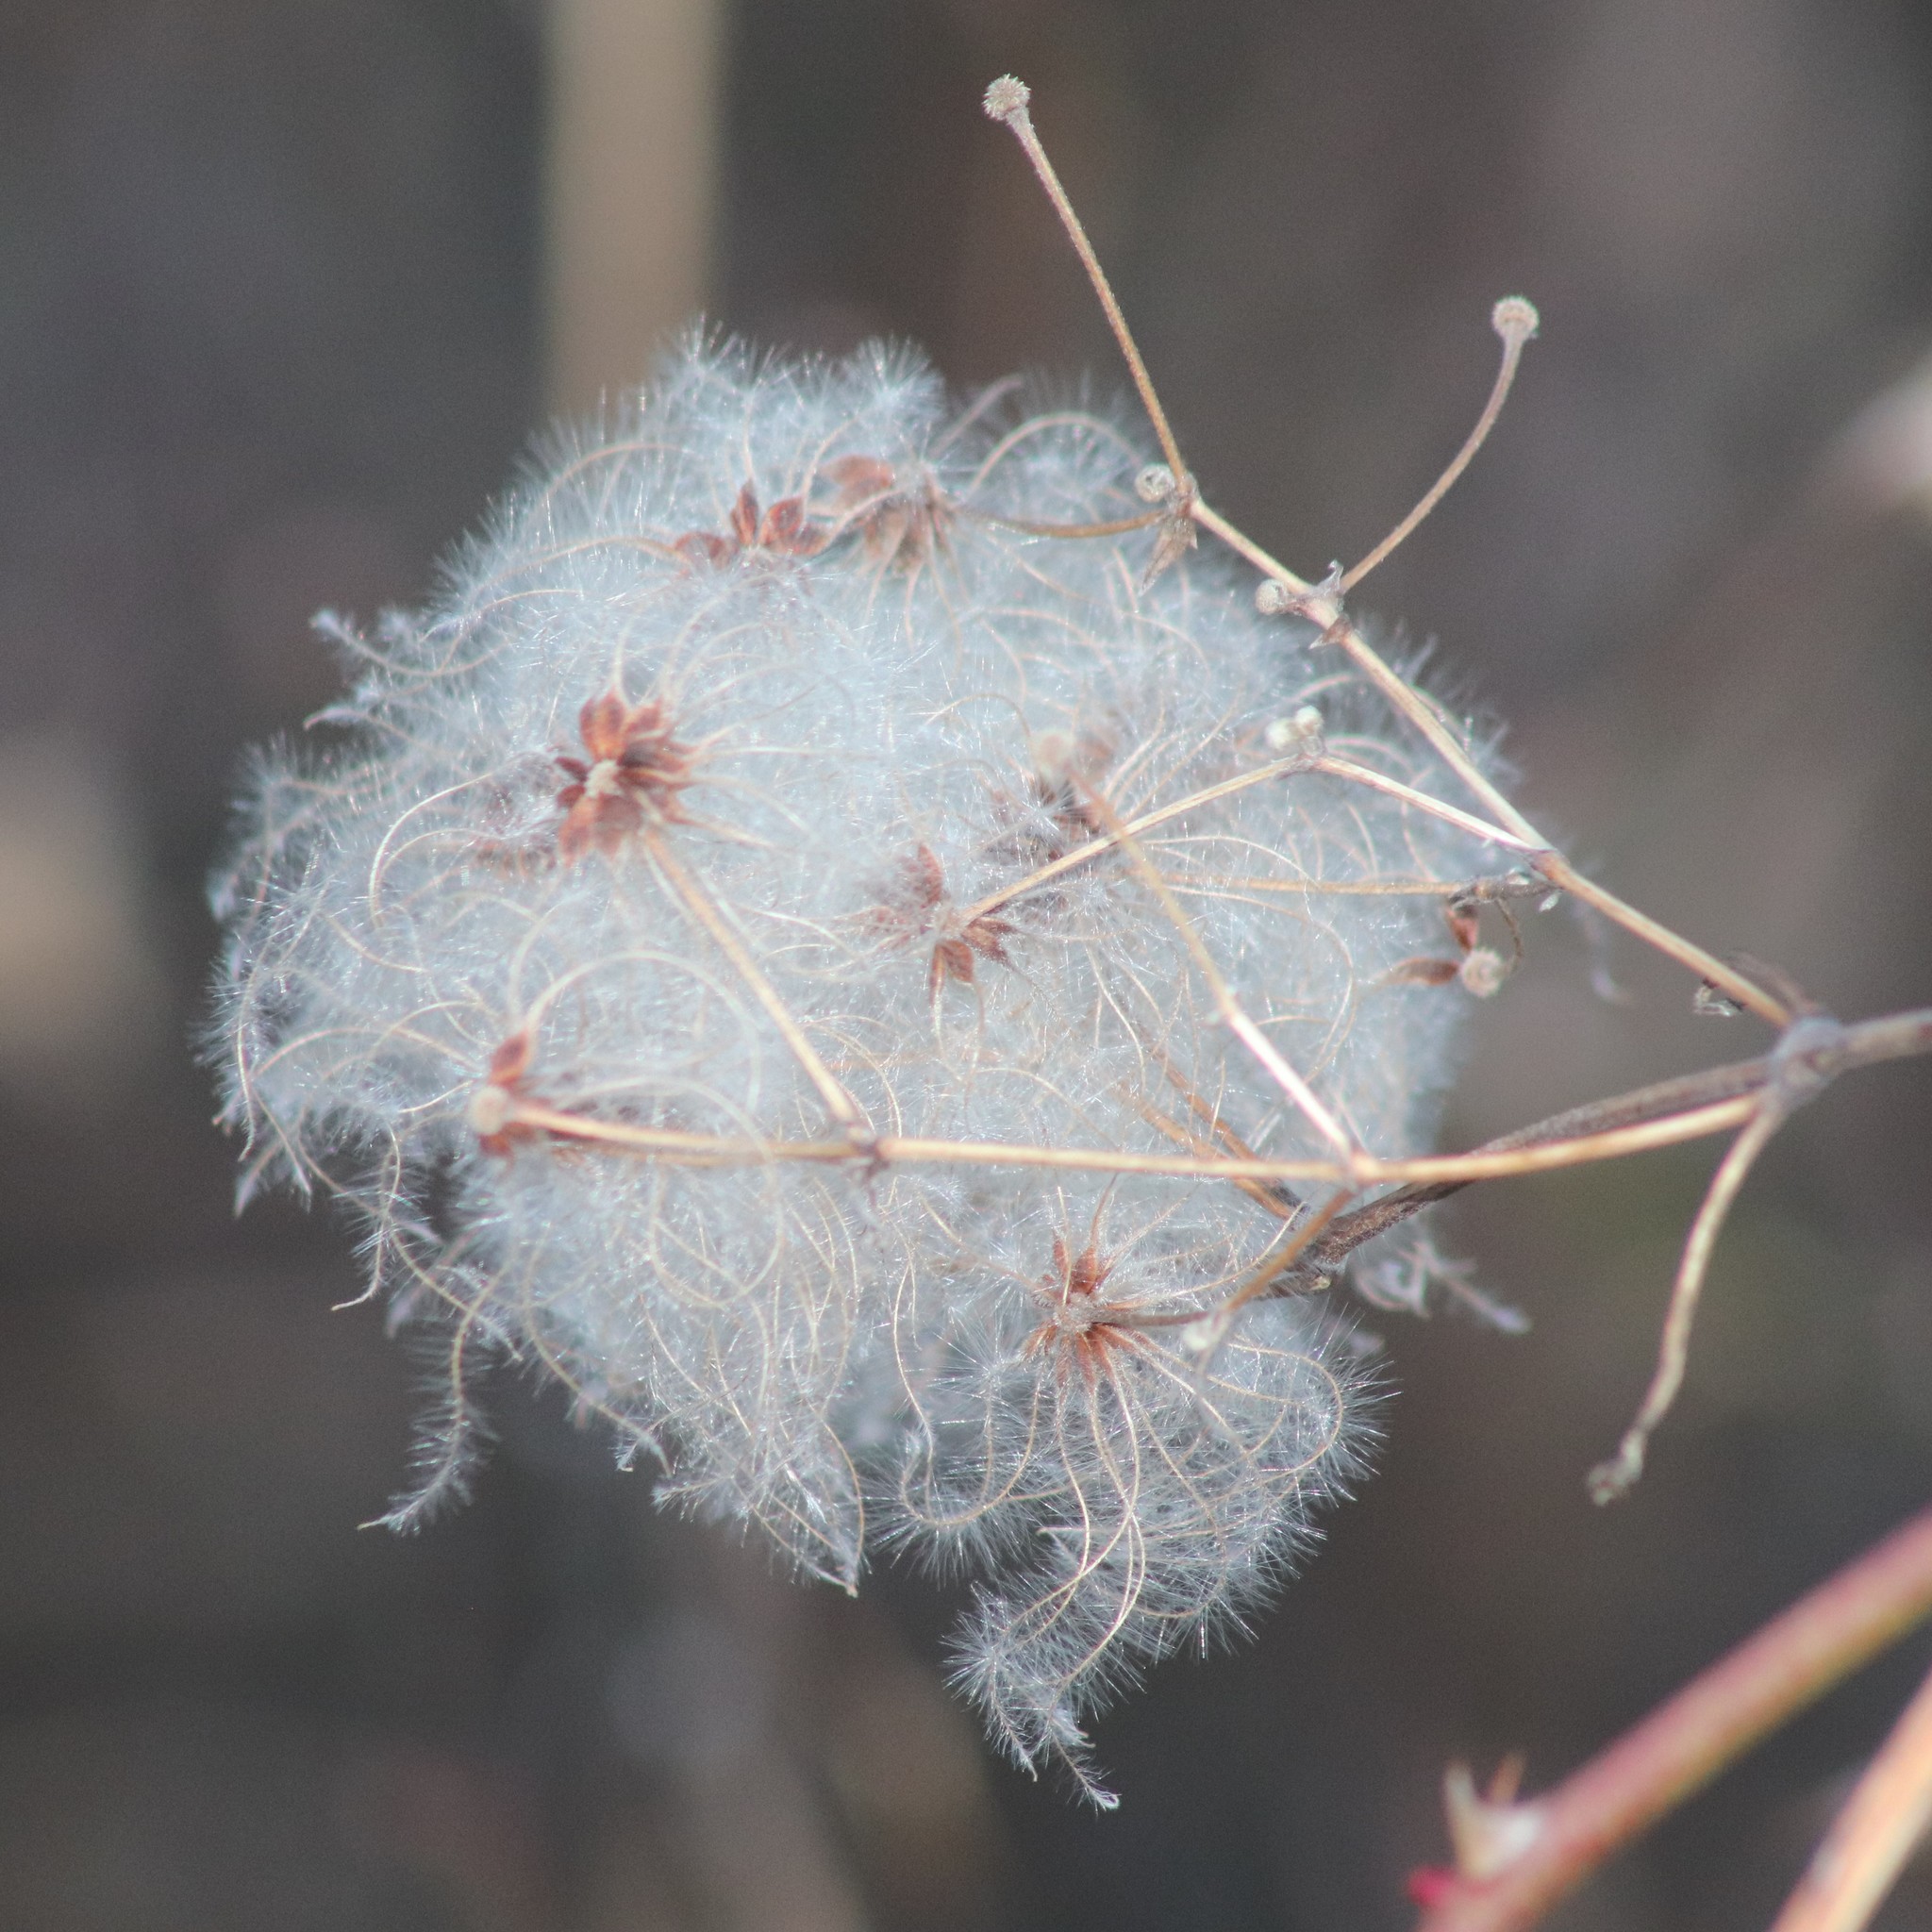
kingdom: Plantae
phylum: Tracheophyta
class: Magnoliopsida
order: Ranunculales
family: Ranunculaceae
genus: Clematis
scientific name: Clematis virginiana
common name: Virgin's-bower
